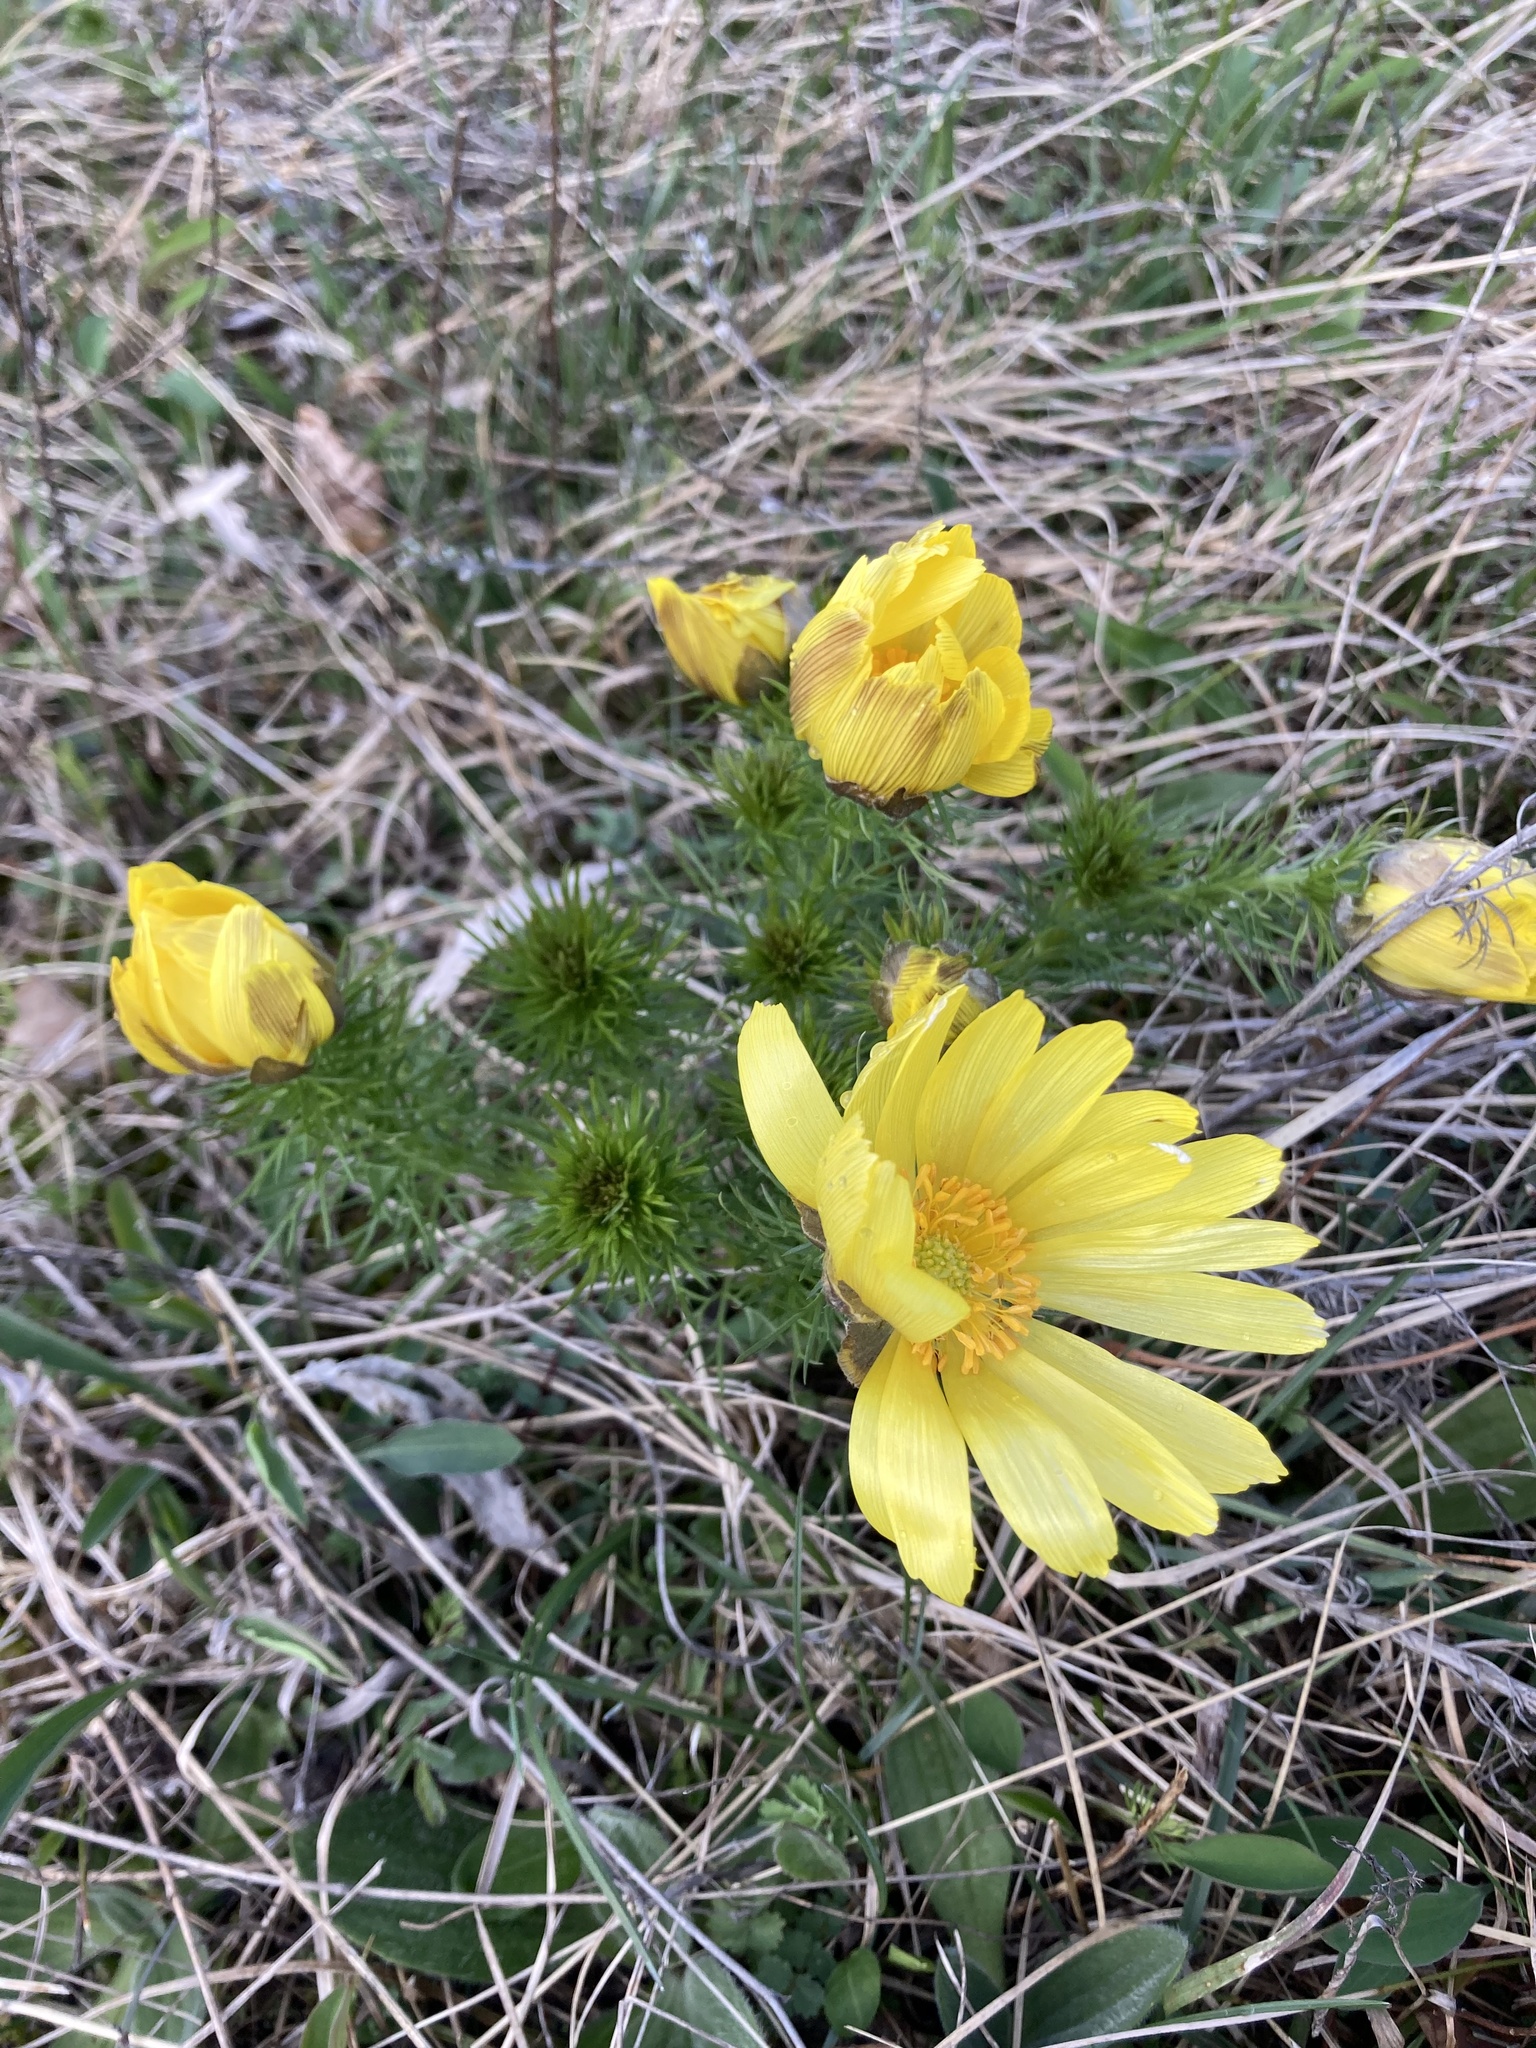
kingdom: Plantae
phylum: Tracheophyta
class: Magnoliopsida
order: Ranunculales
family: Ranunculaceae
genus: Adonis
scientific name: Adonis vernalis
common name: Yellow pheasants-eye
